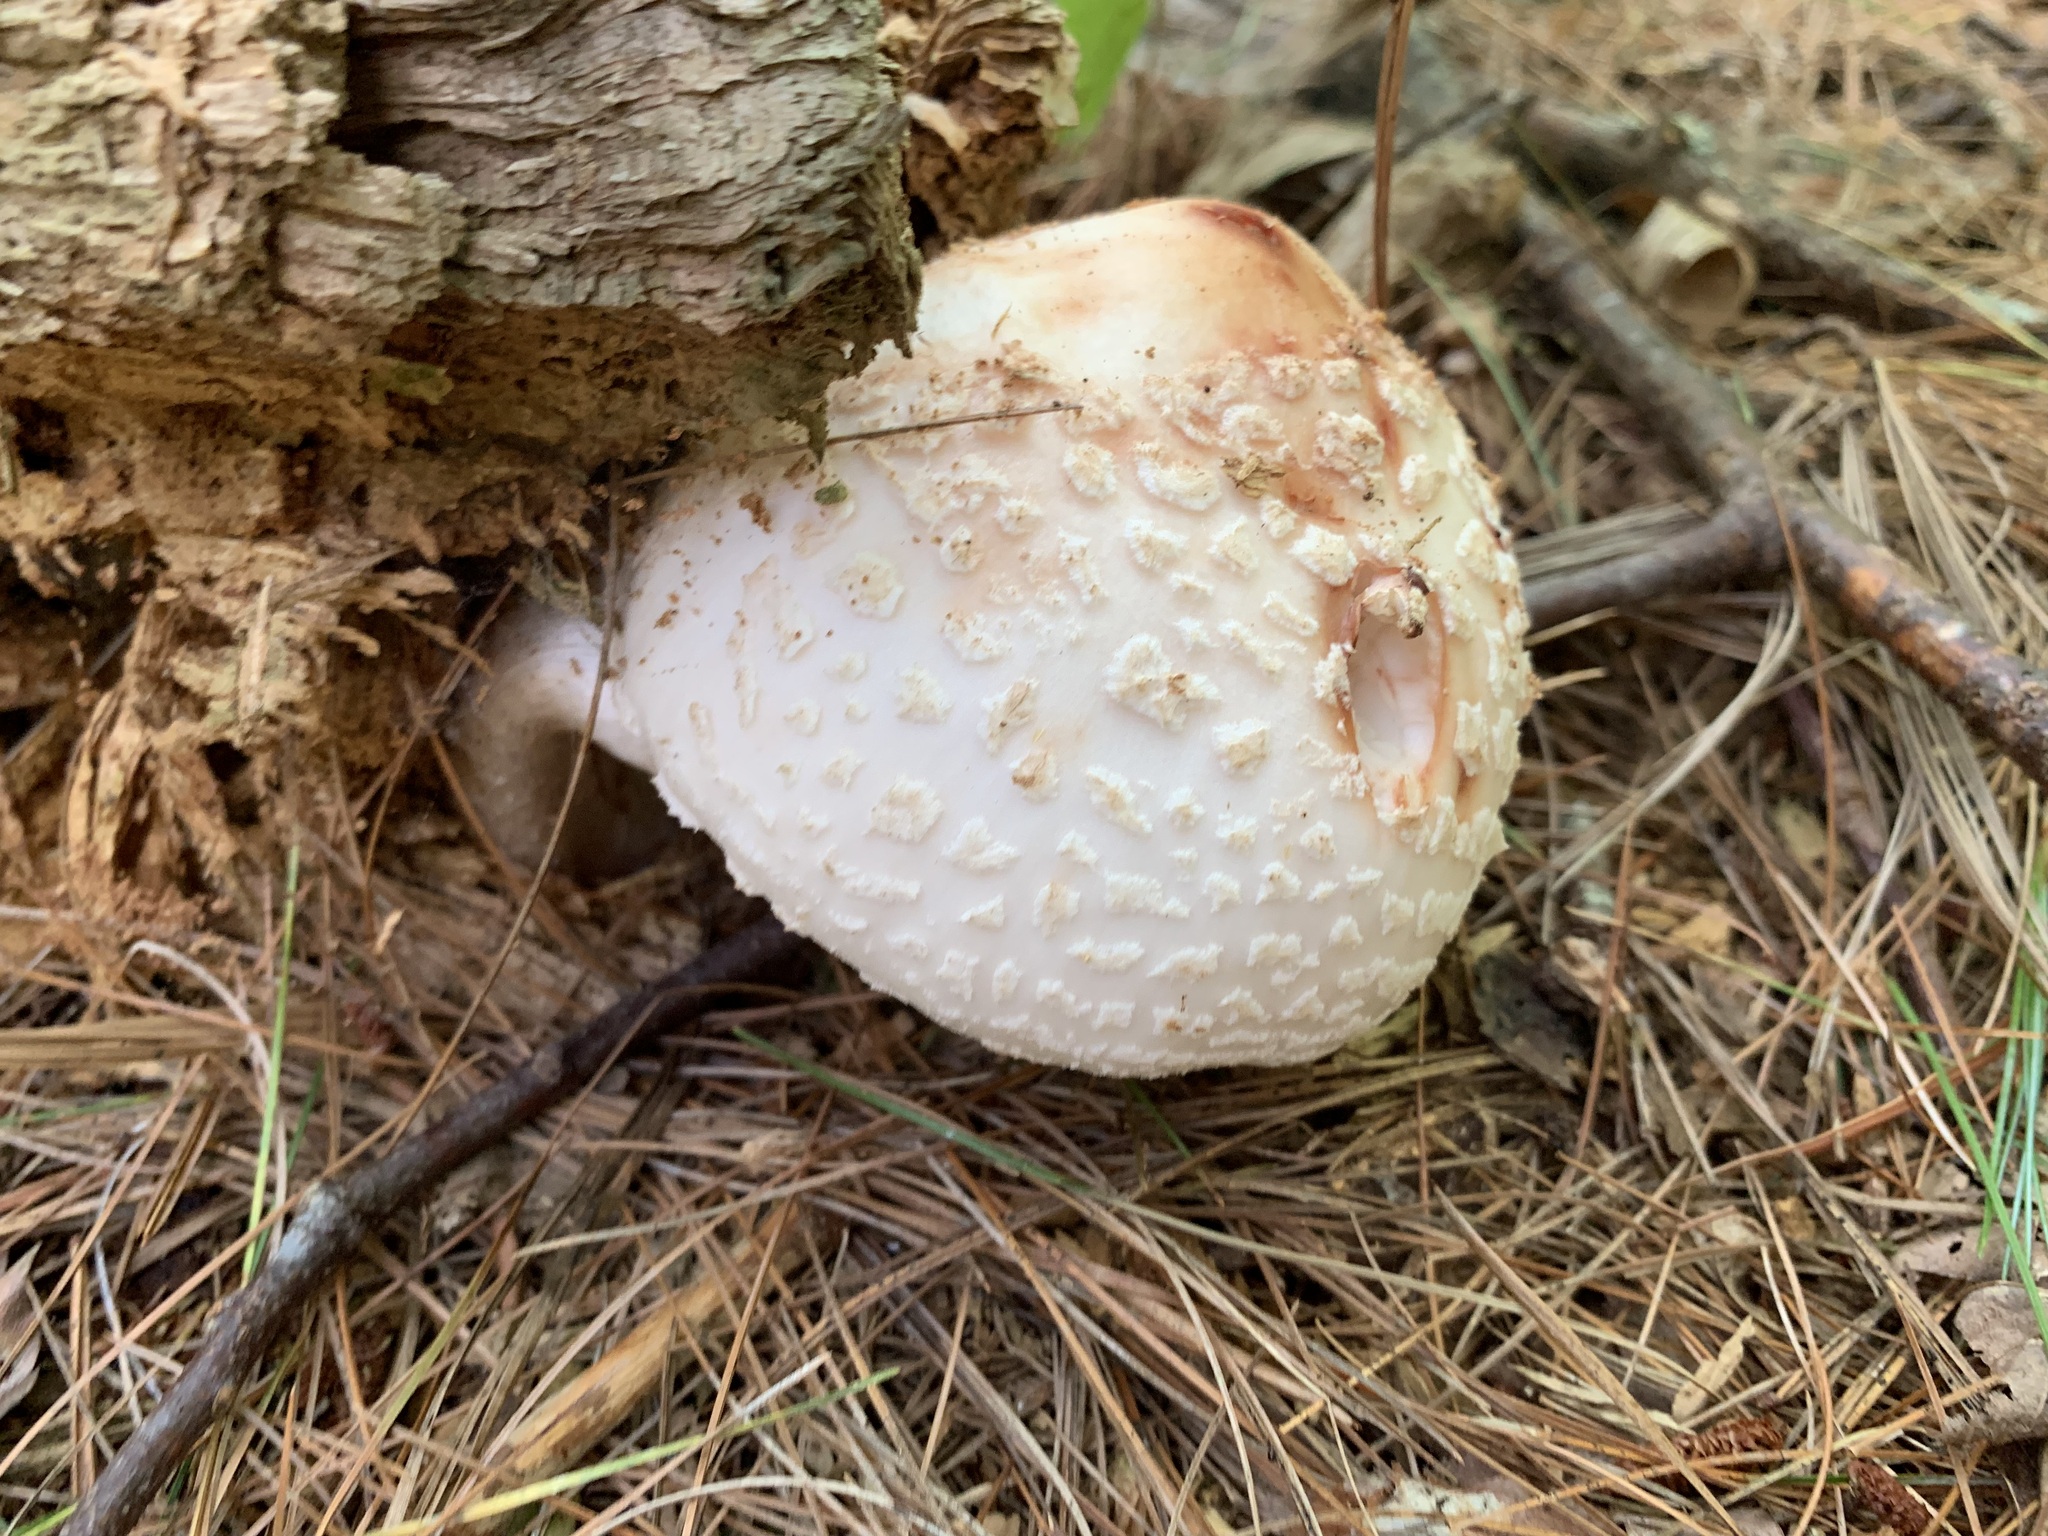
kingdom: Fungi
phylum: Basidiomycota
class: Agaricomycetes
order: Agaricales
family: Amanitaceae
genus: Amanita
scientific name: Amanita rubescens
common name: Blusher
